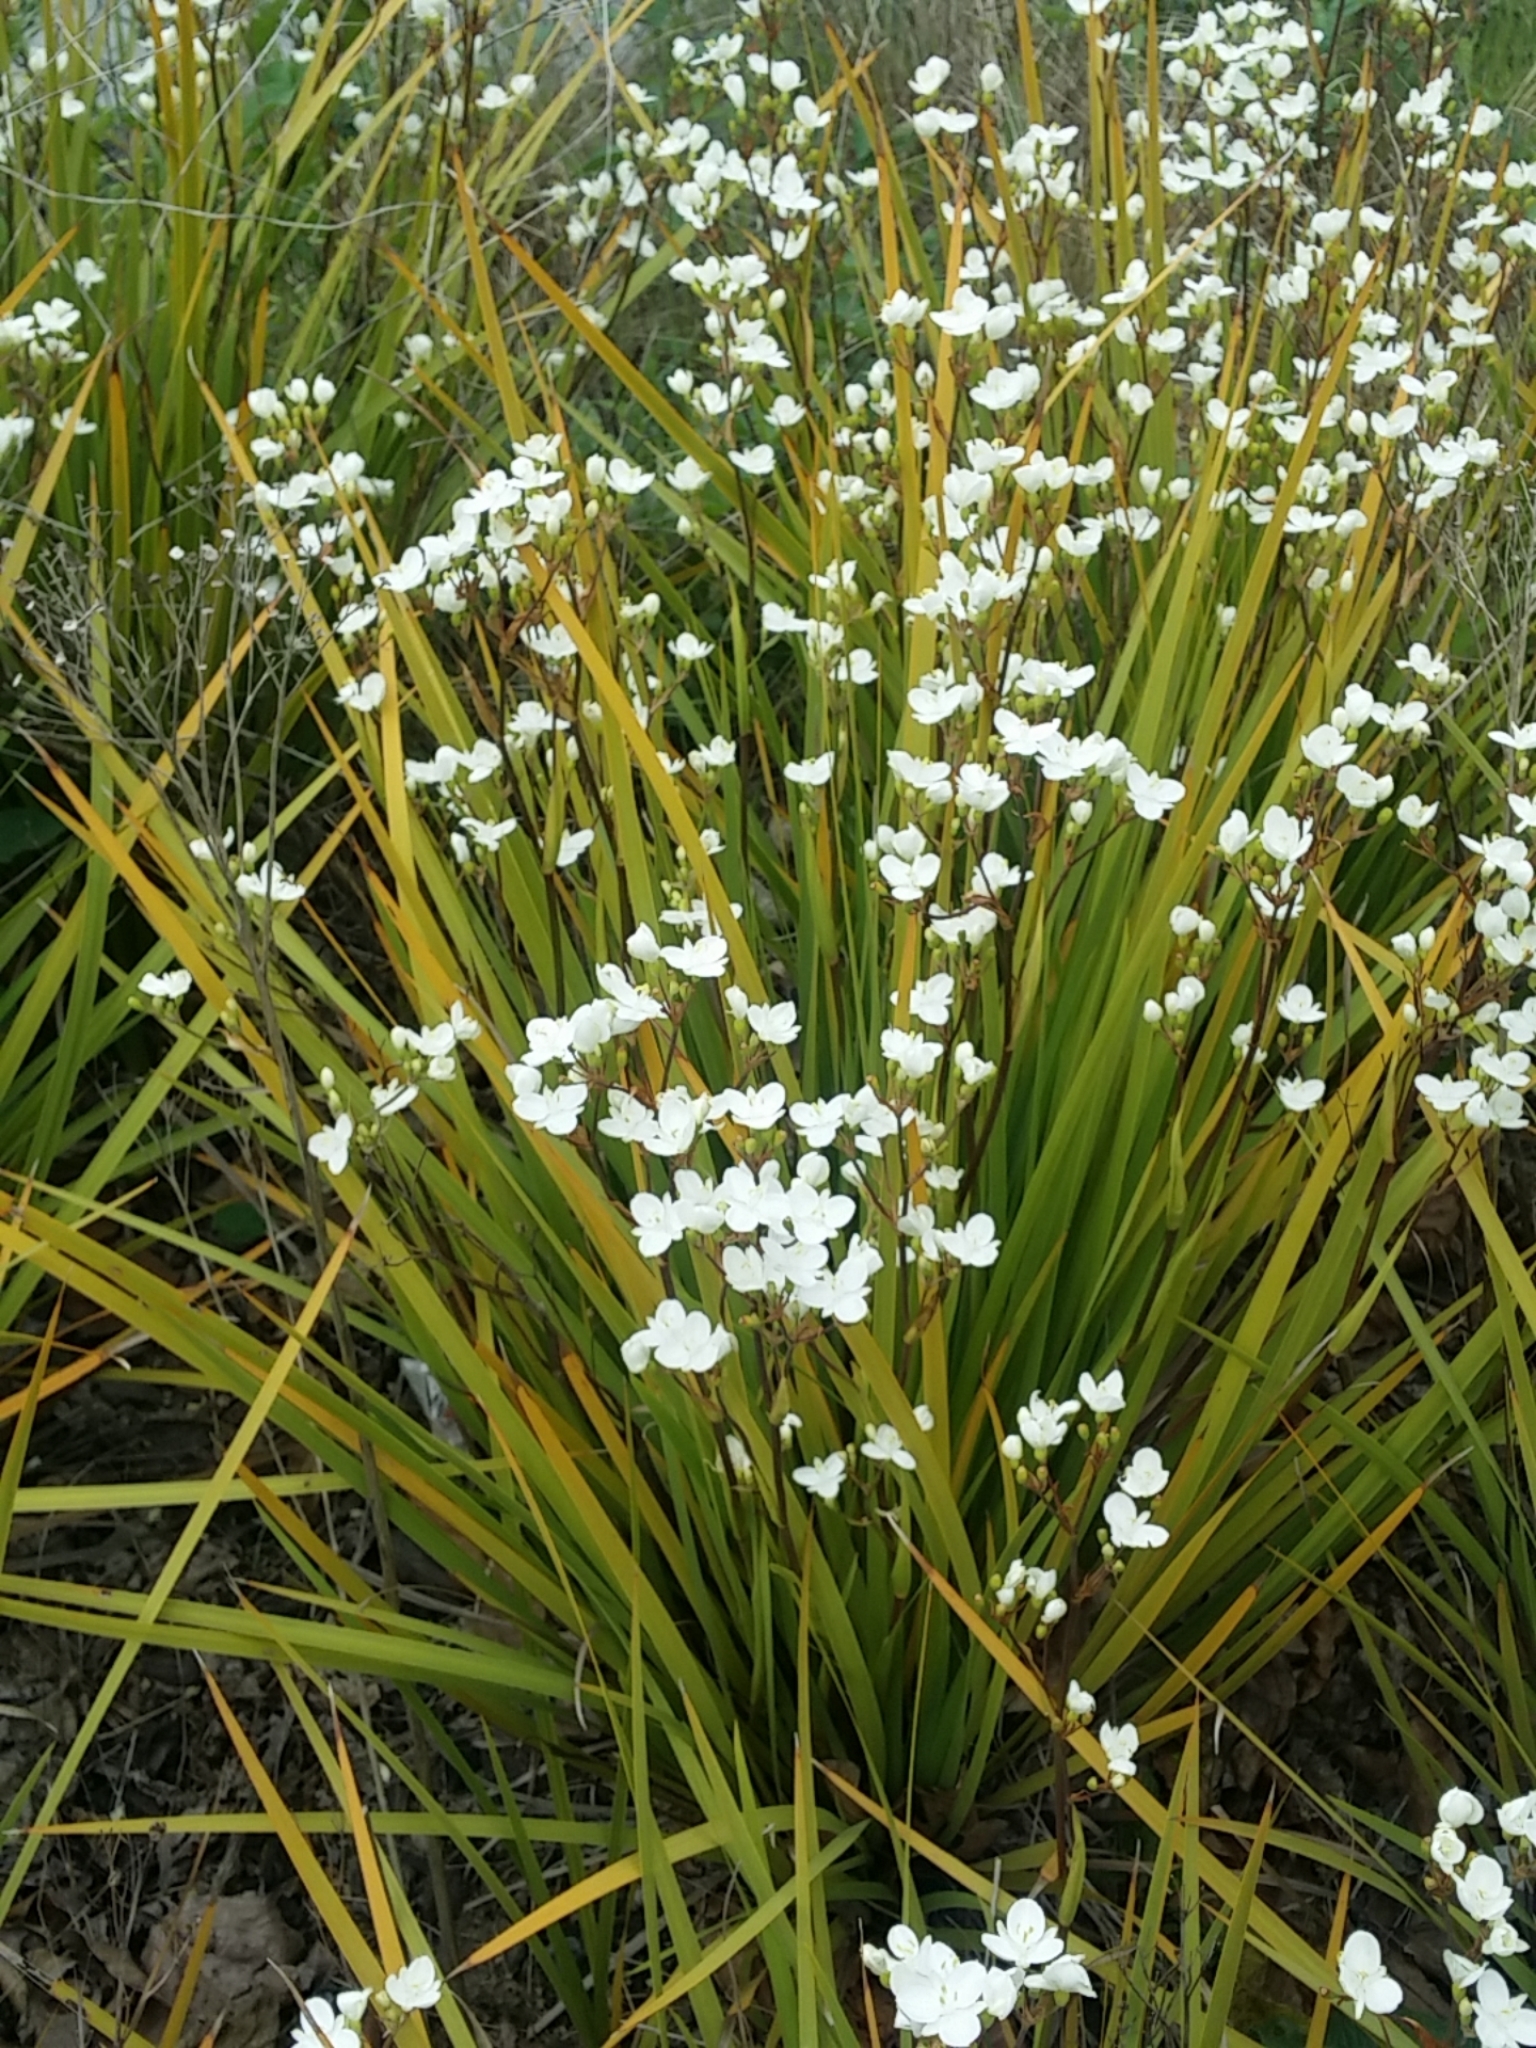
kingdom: Plantae
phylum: Tracheophyta
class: Liliopsida
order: Asparagales
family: Iridaceae
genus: Libertia
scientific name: Libertia ixioides
